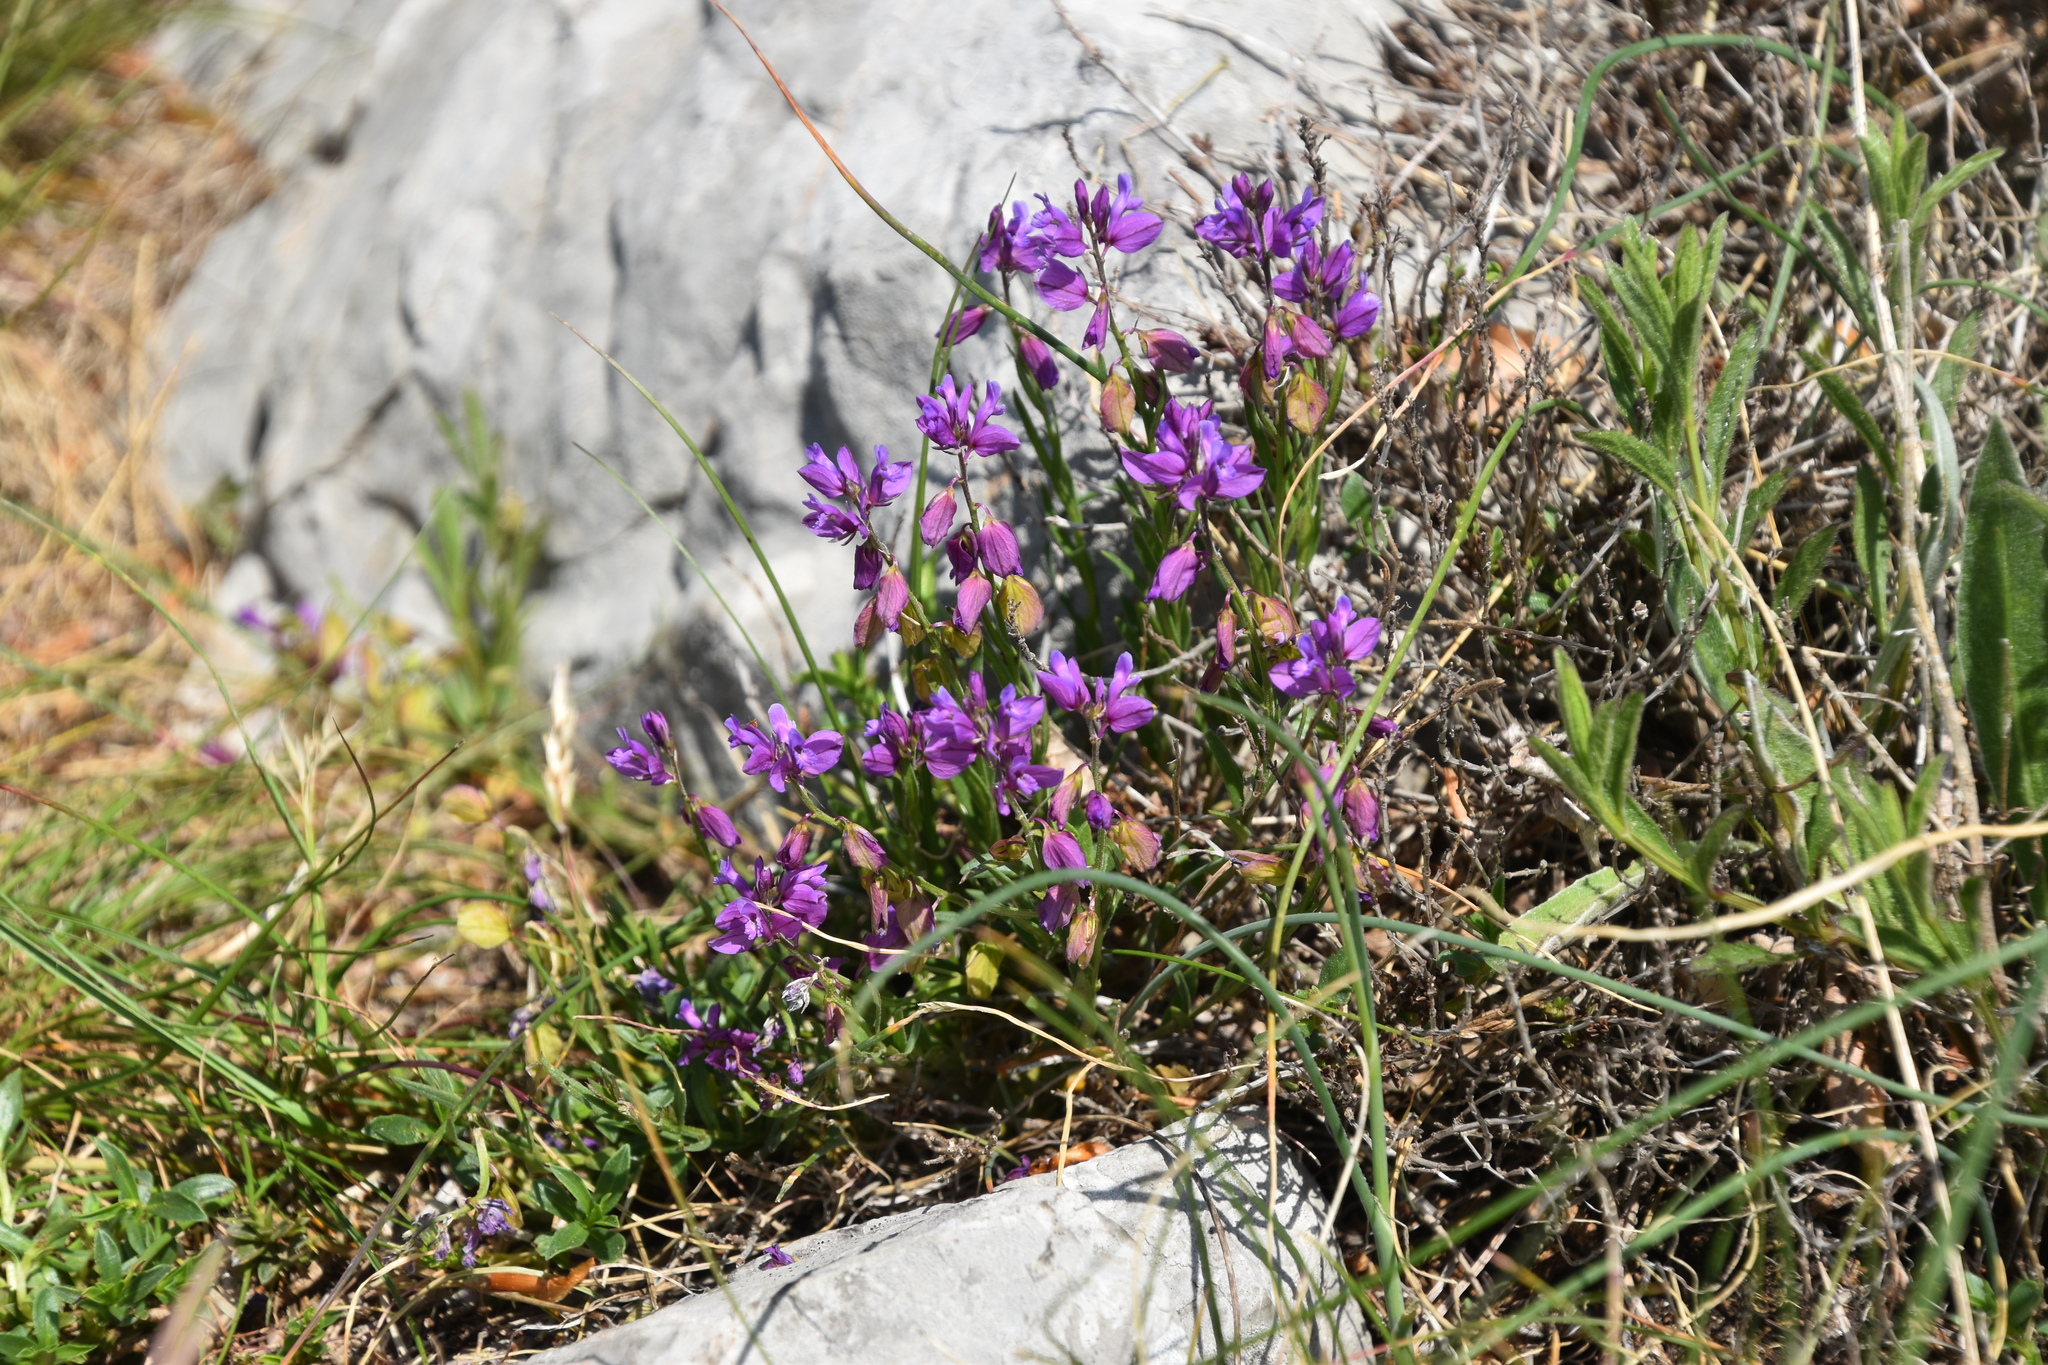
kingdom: Plantae
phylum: Tracheophyta
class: Magnoliopsida
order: Fabales
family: Polygalaceae
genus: Polygala
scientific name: Polygala nicaeensis
